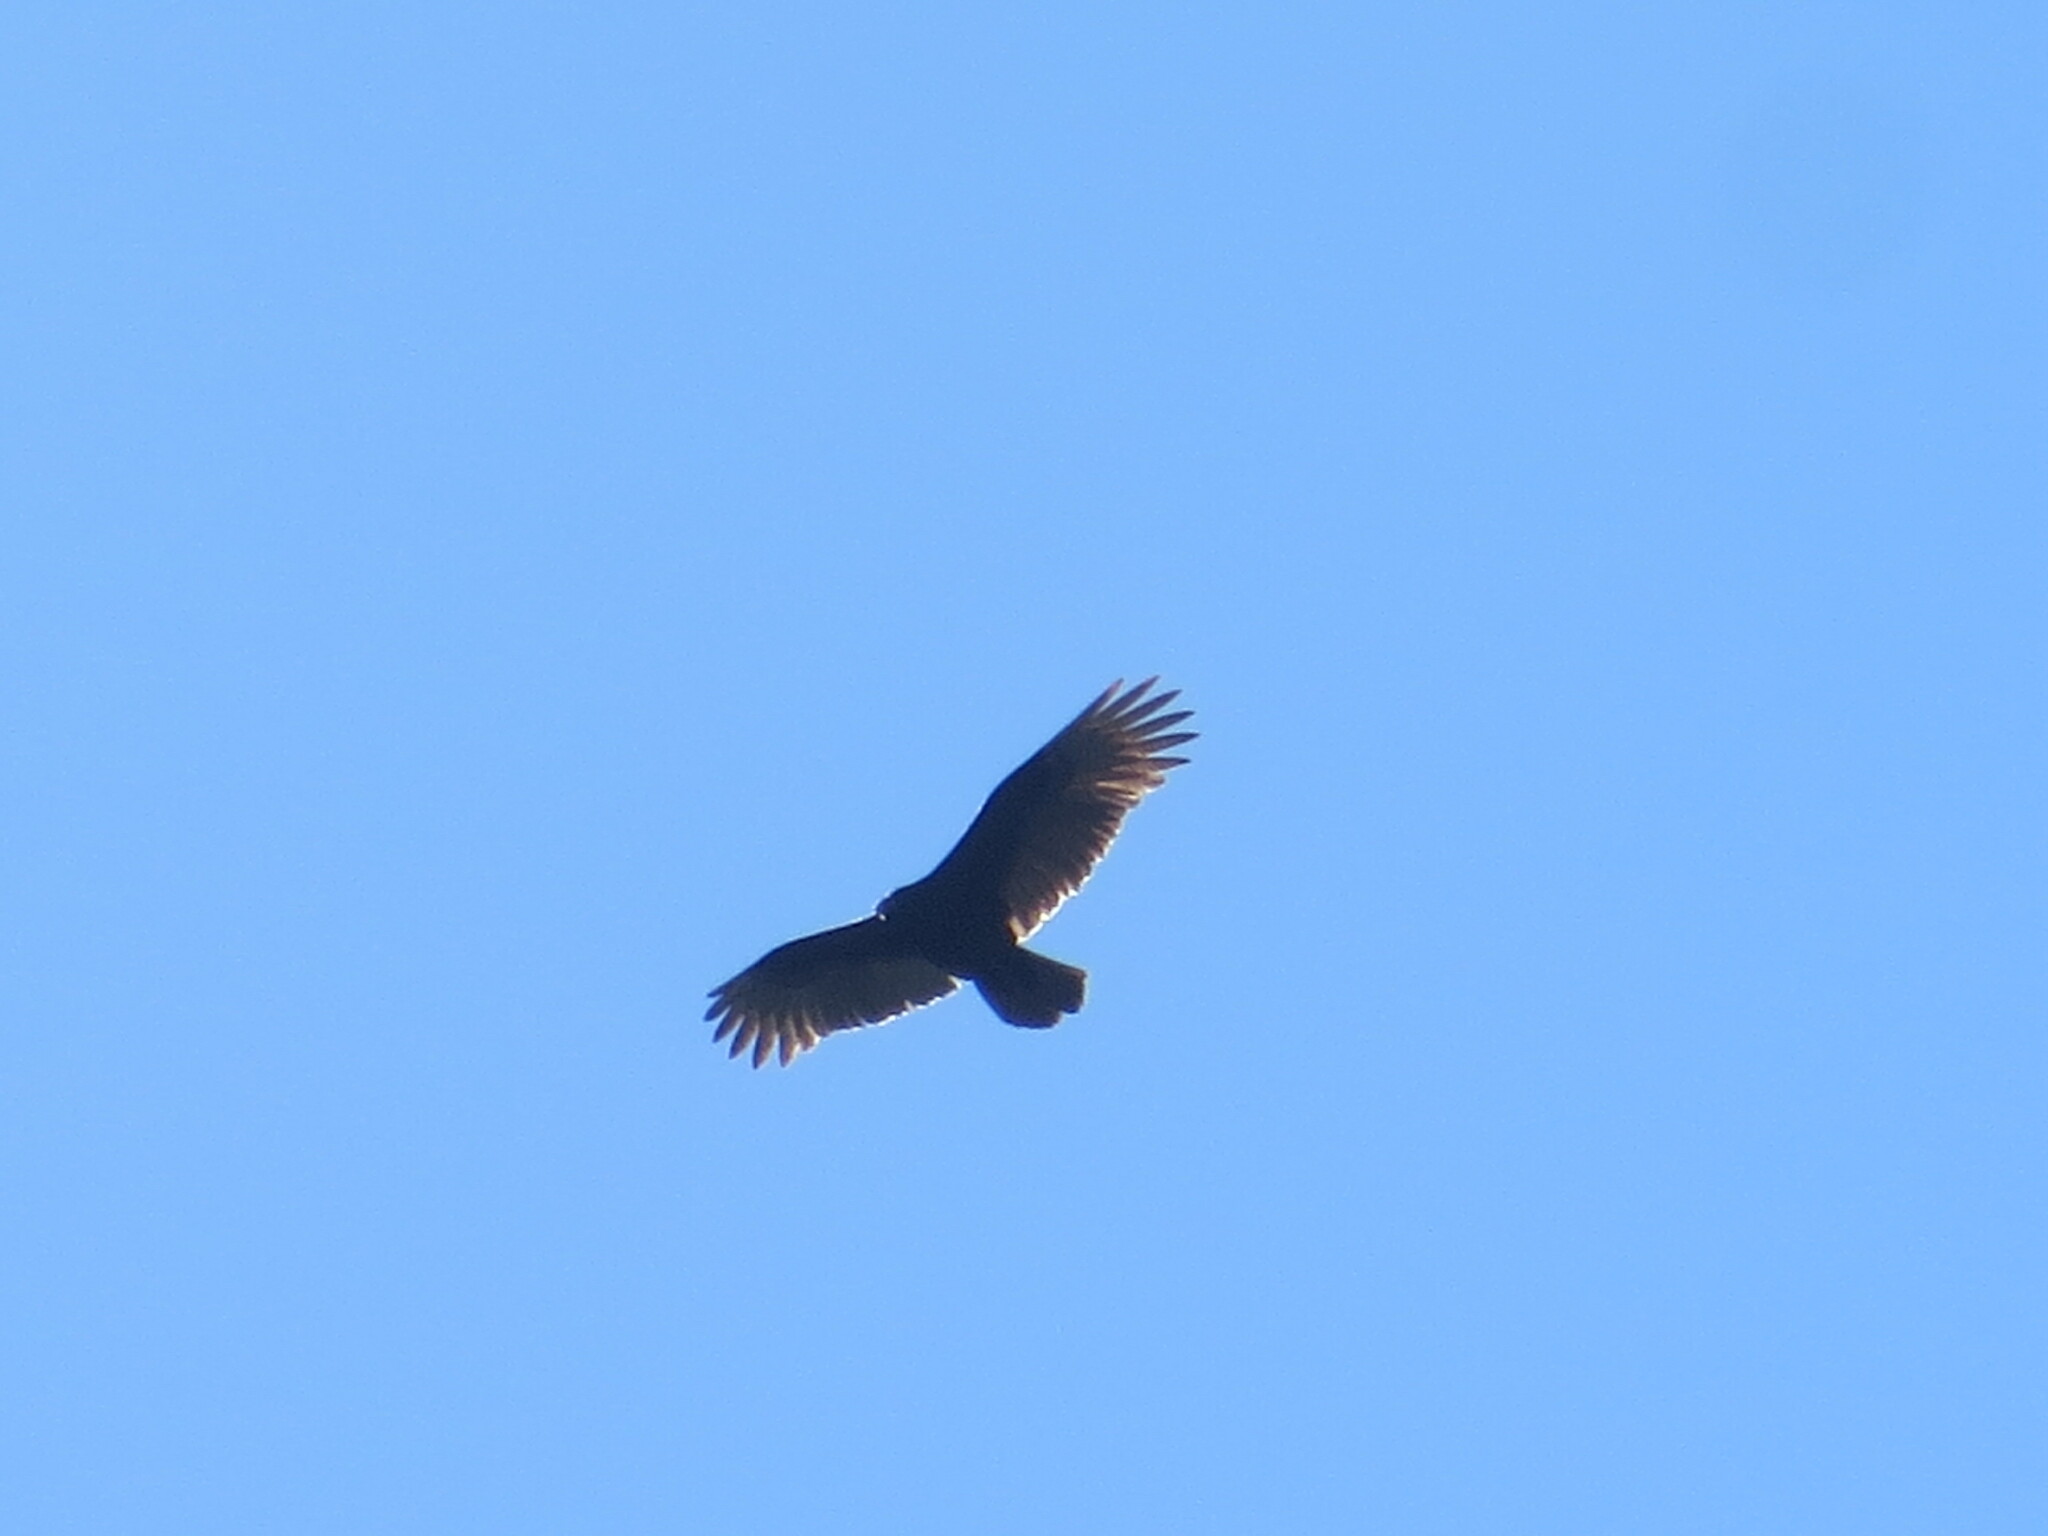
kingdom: Animalia
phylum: Chordata
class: Aves
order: Accipitriformes
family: Cathartidae
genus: Cathartes
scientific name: Cathartes aura
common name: Turkey vulture
